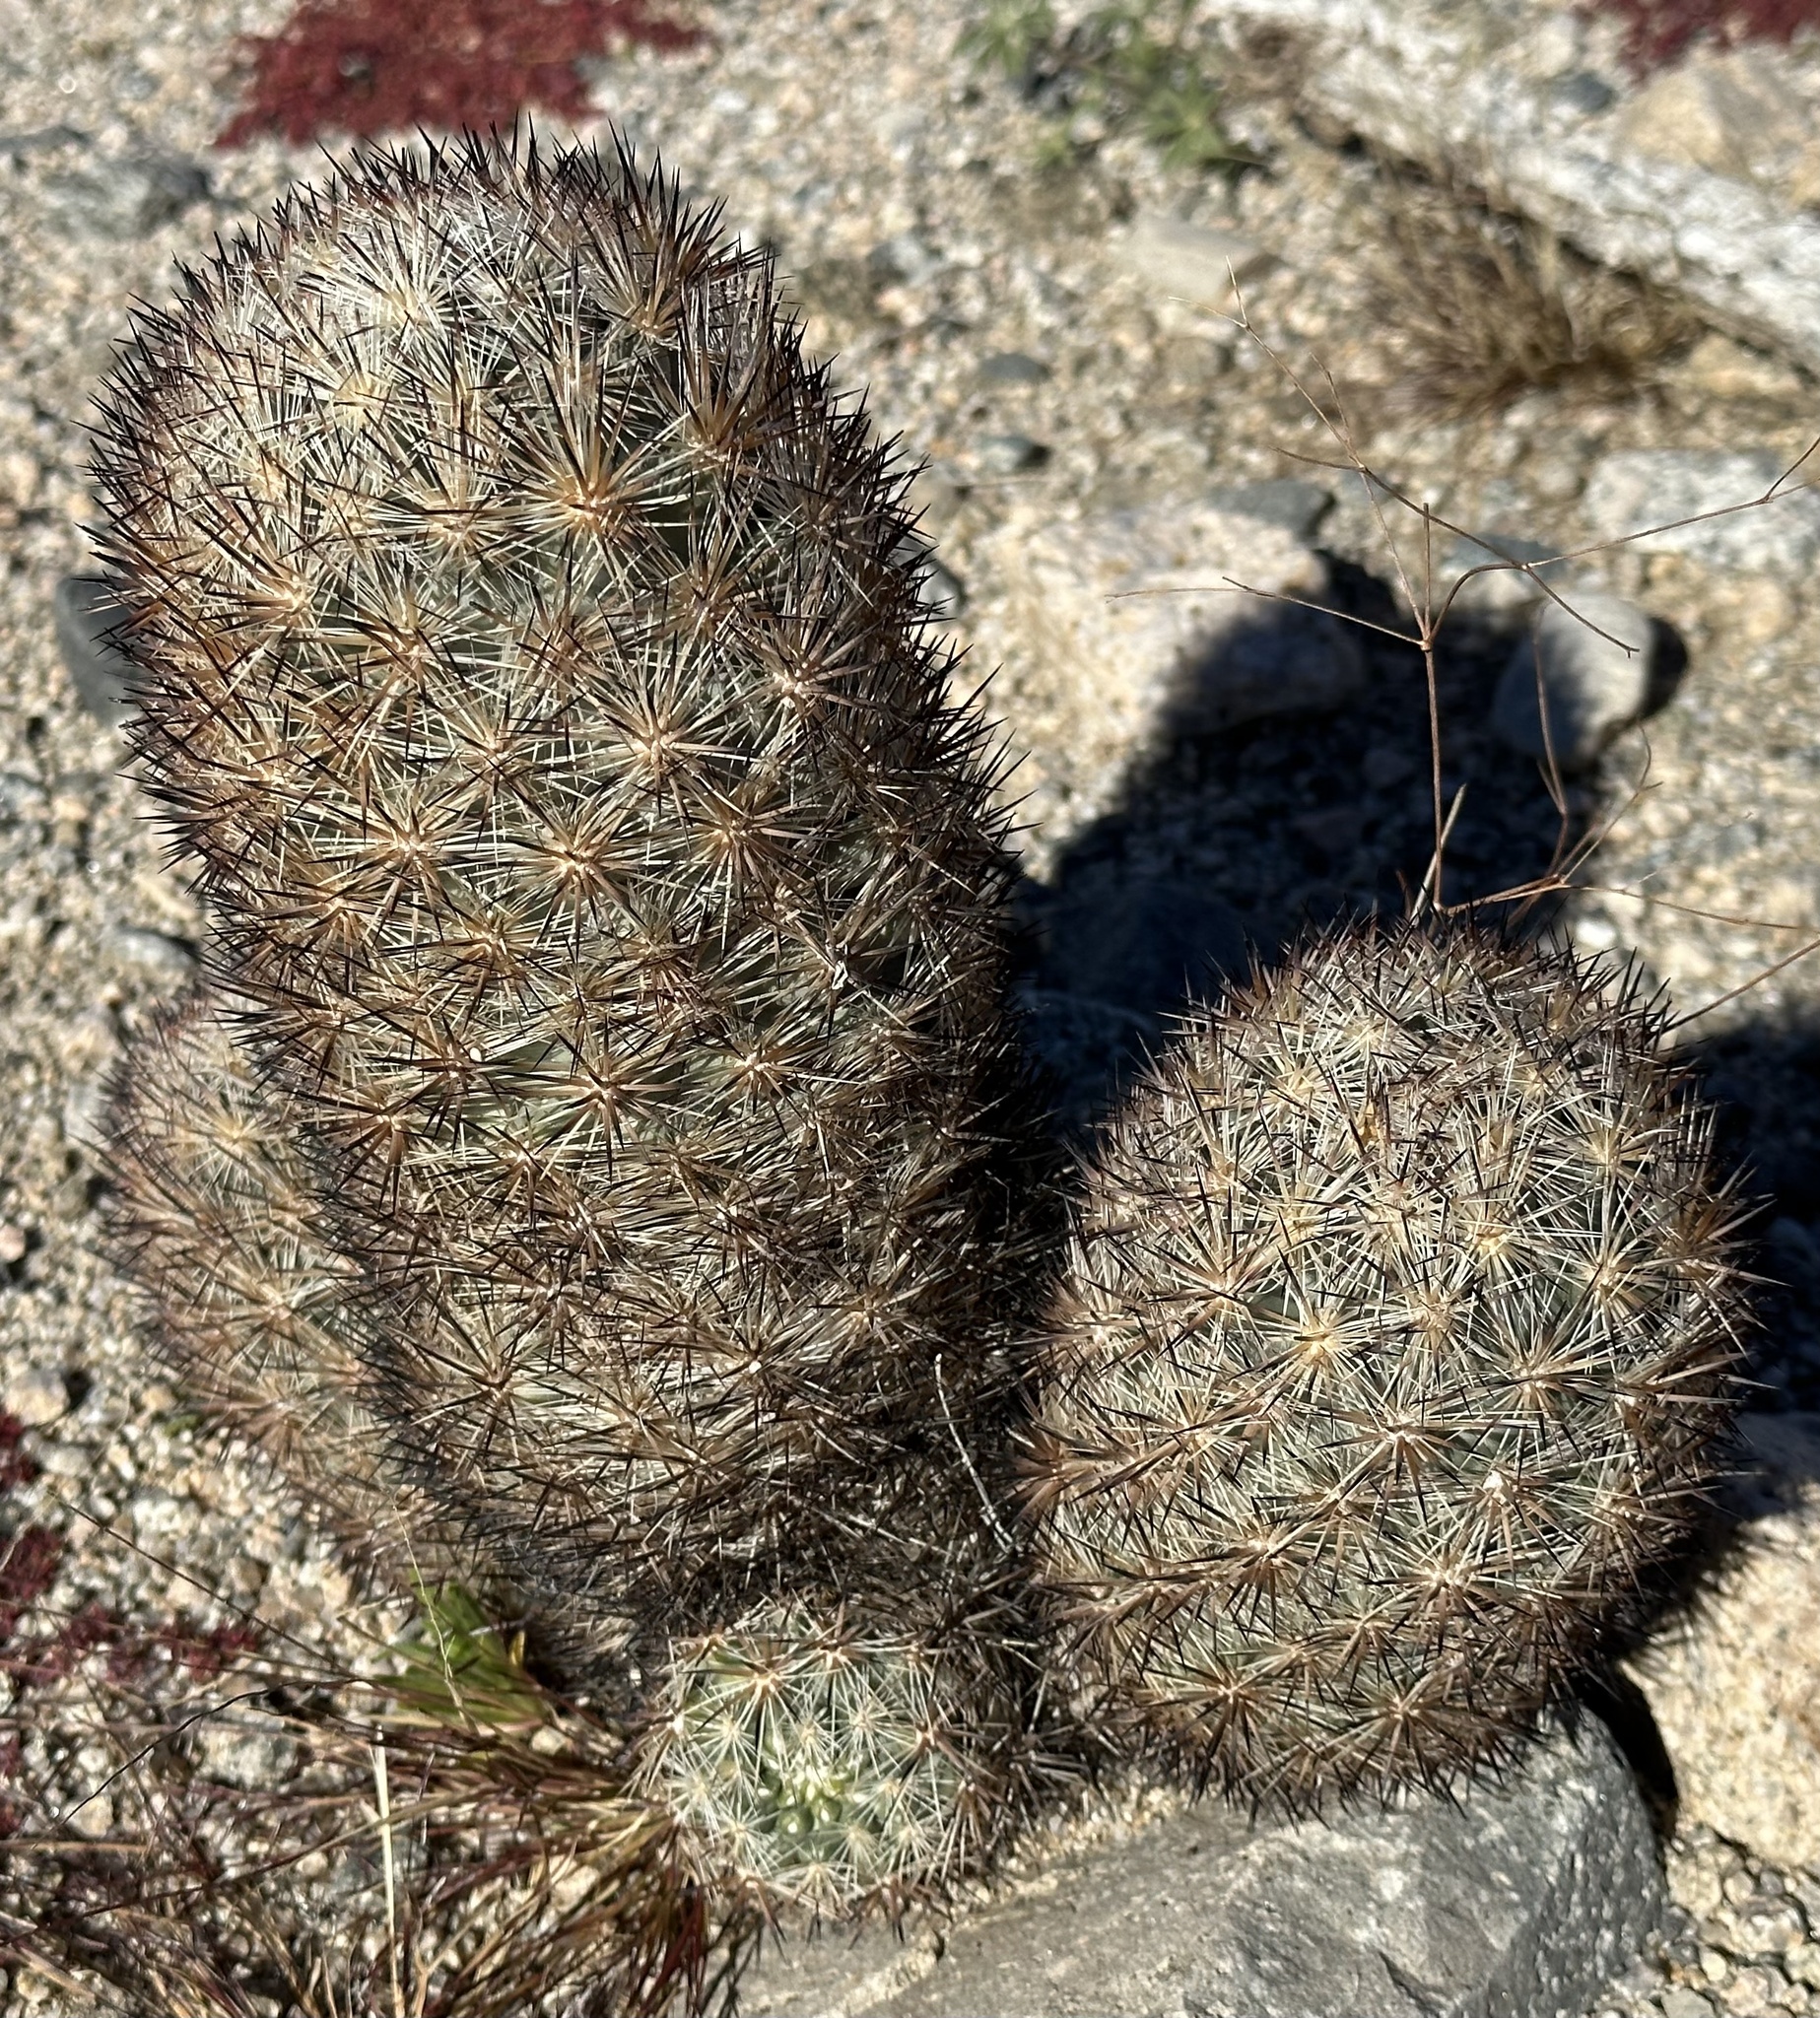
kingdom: Plantae
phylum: Tracheophyta
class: Magnoliopsida
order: Caryophyllales
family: Cactaceae
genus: Pelecyphora
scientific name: Pelecyphora alversonii
